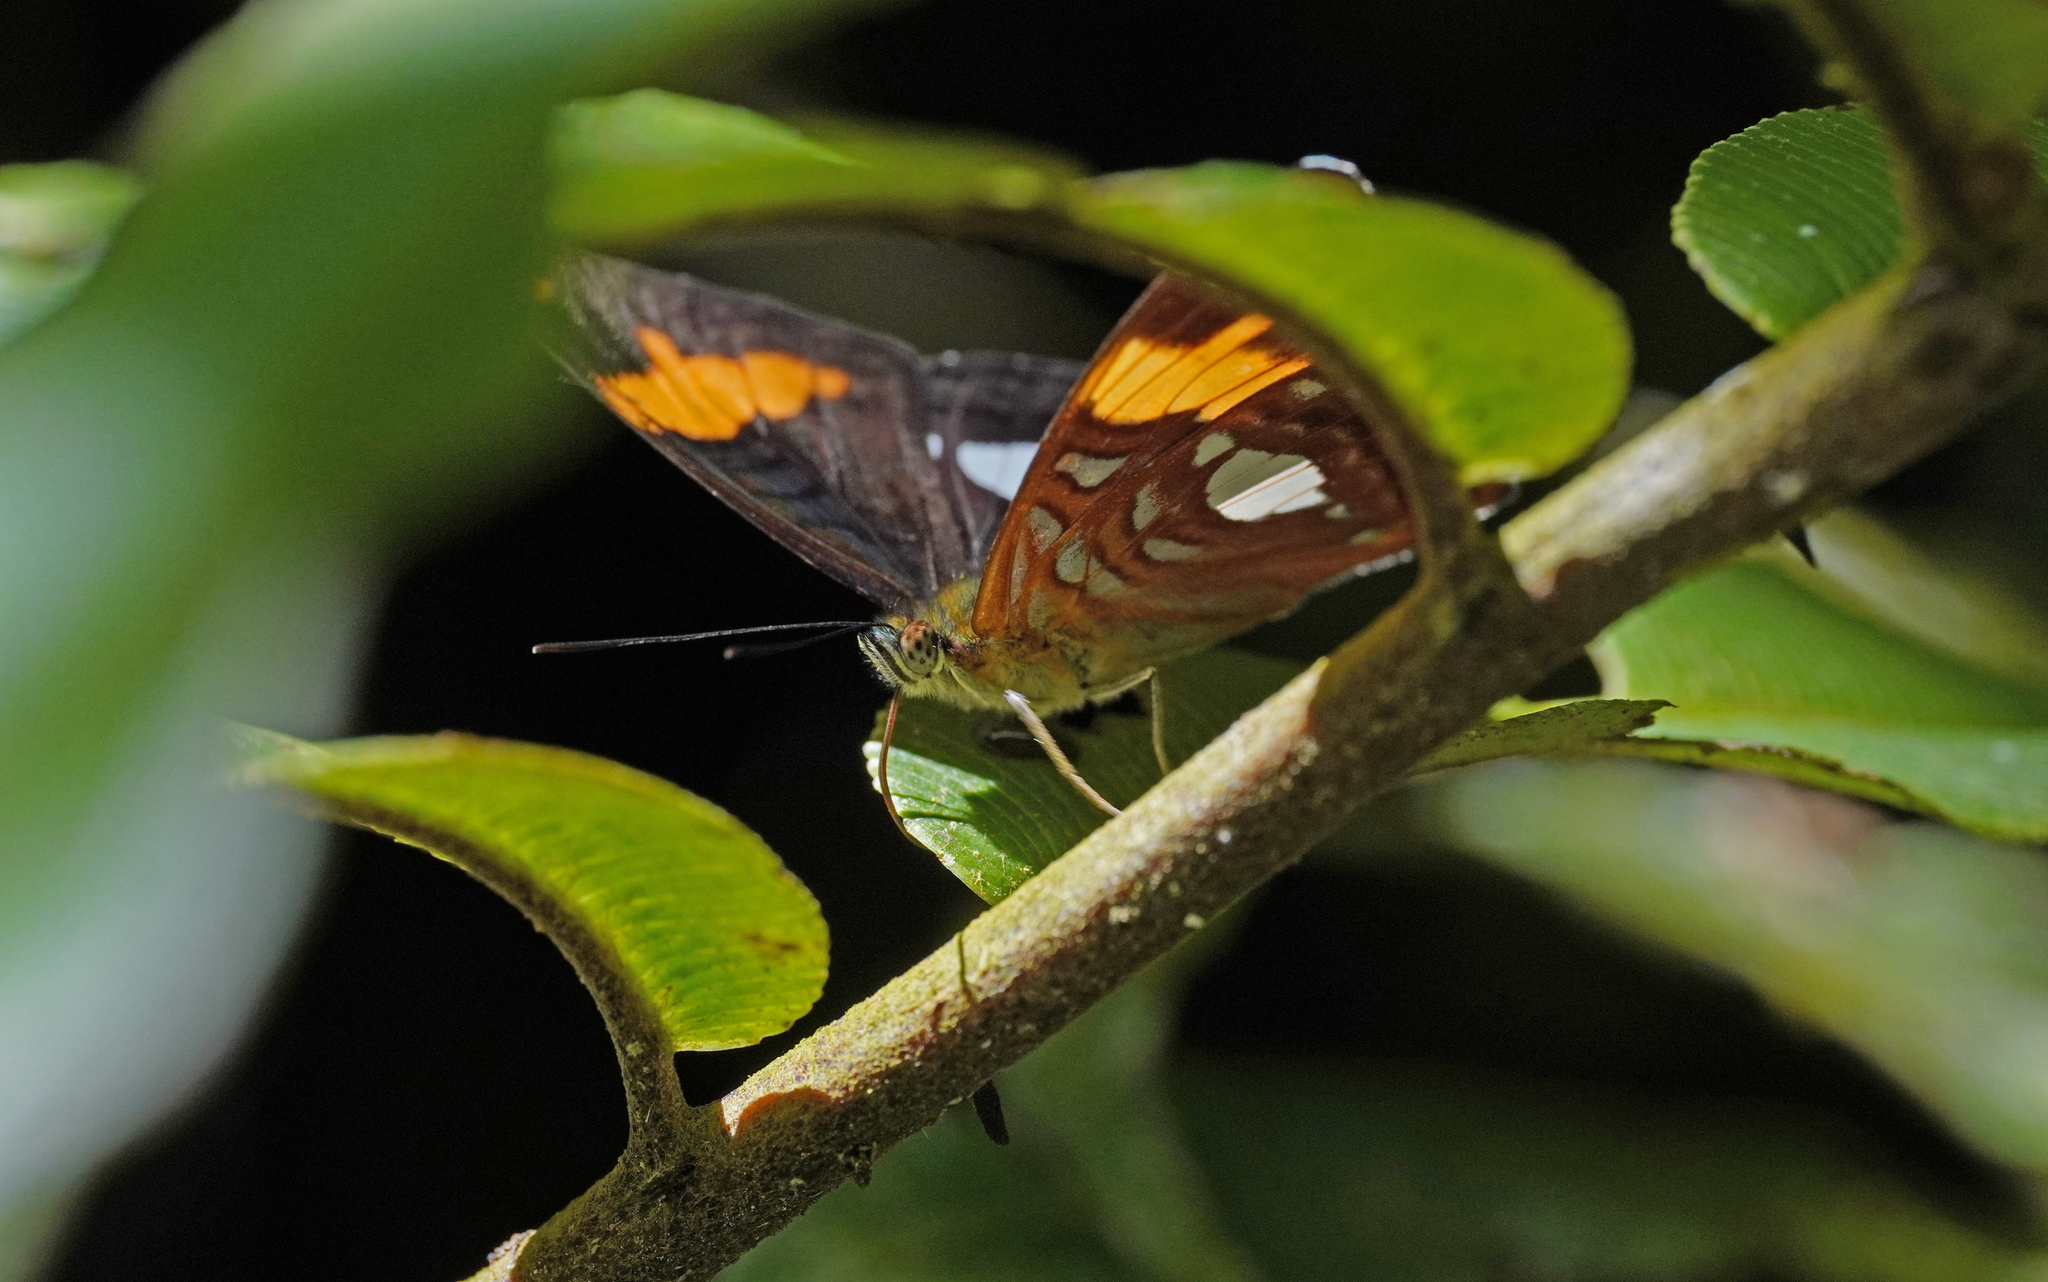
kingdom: Animalia
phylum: Arthropoda
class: Insecta
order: Lepidoptera
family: Nymphalidae
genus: Limenitis
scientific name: Limenitis justina
